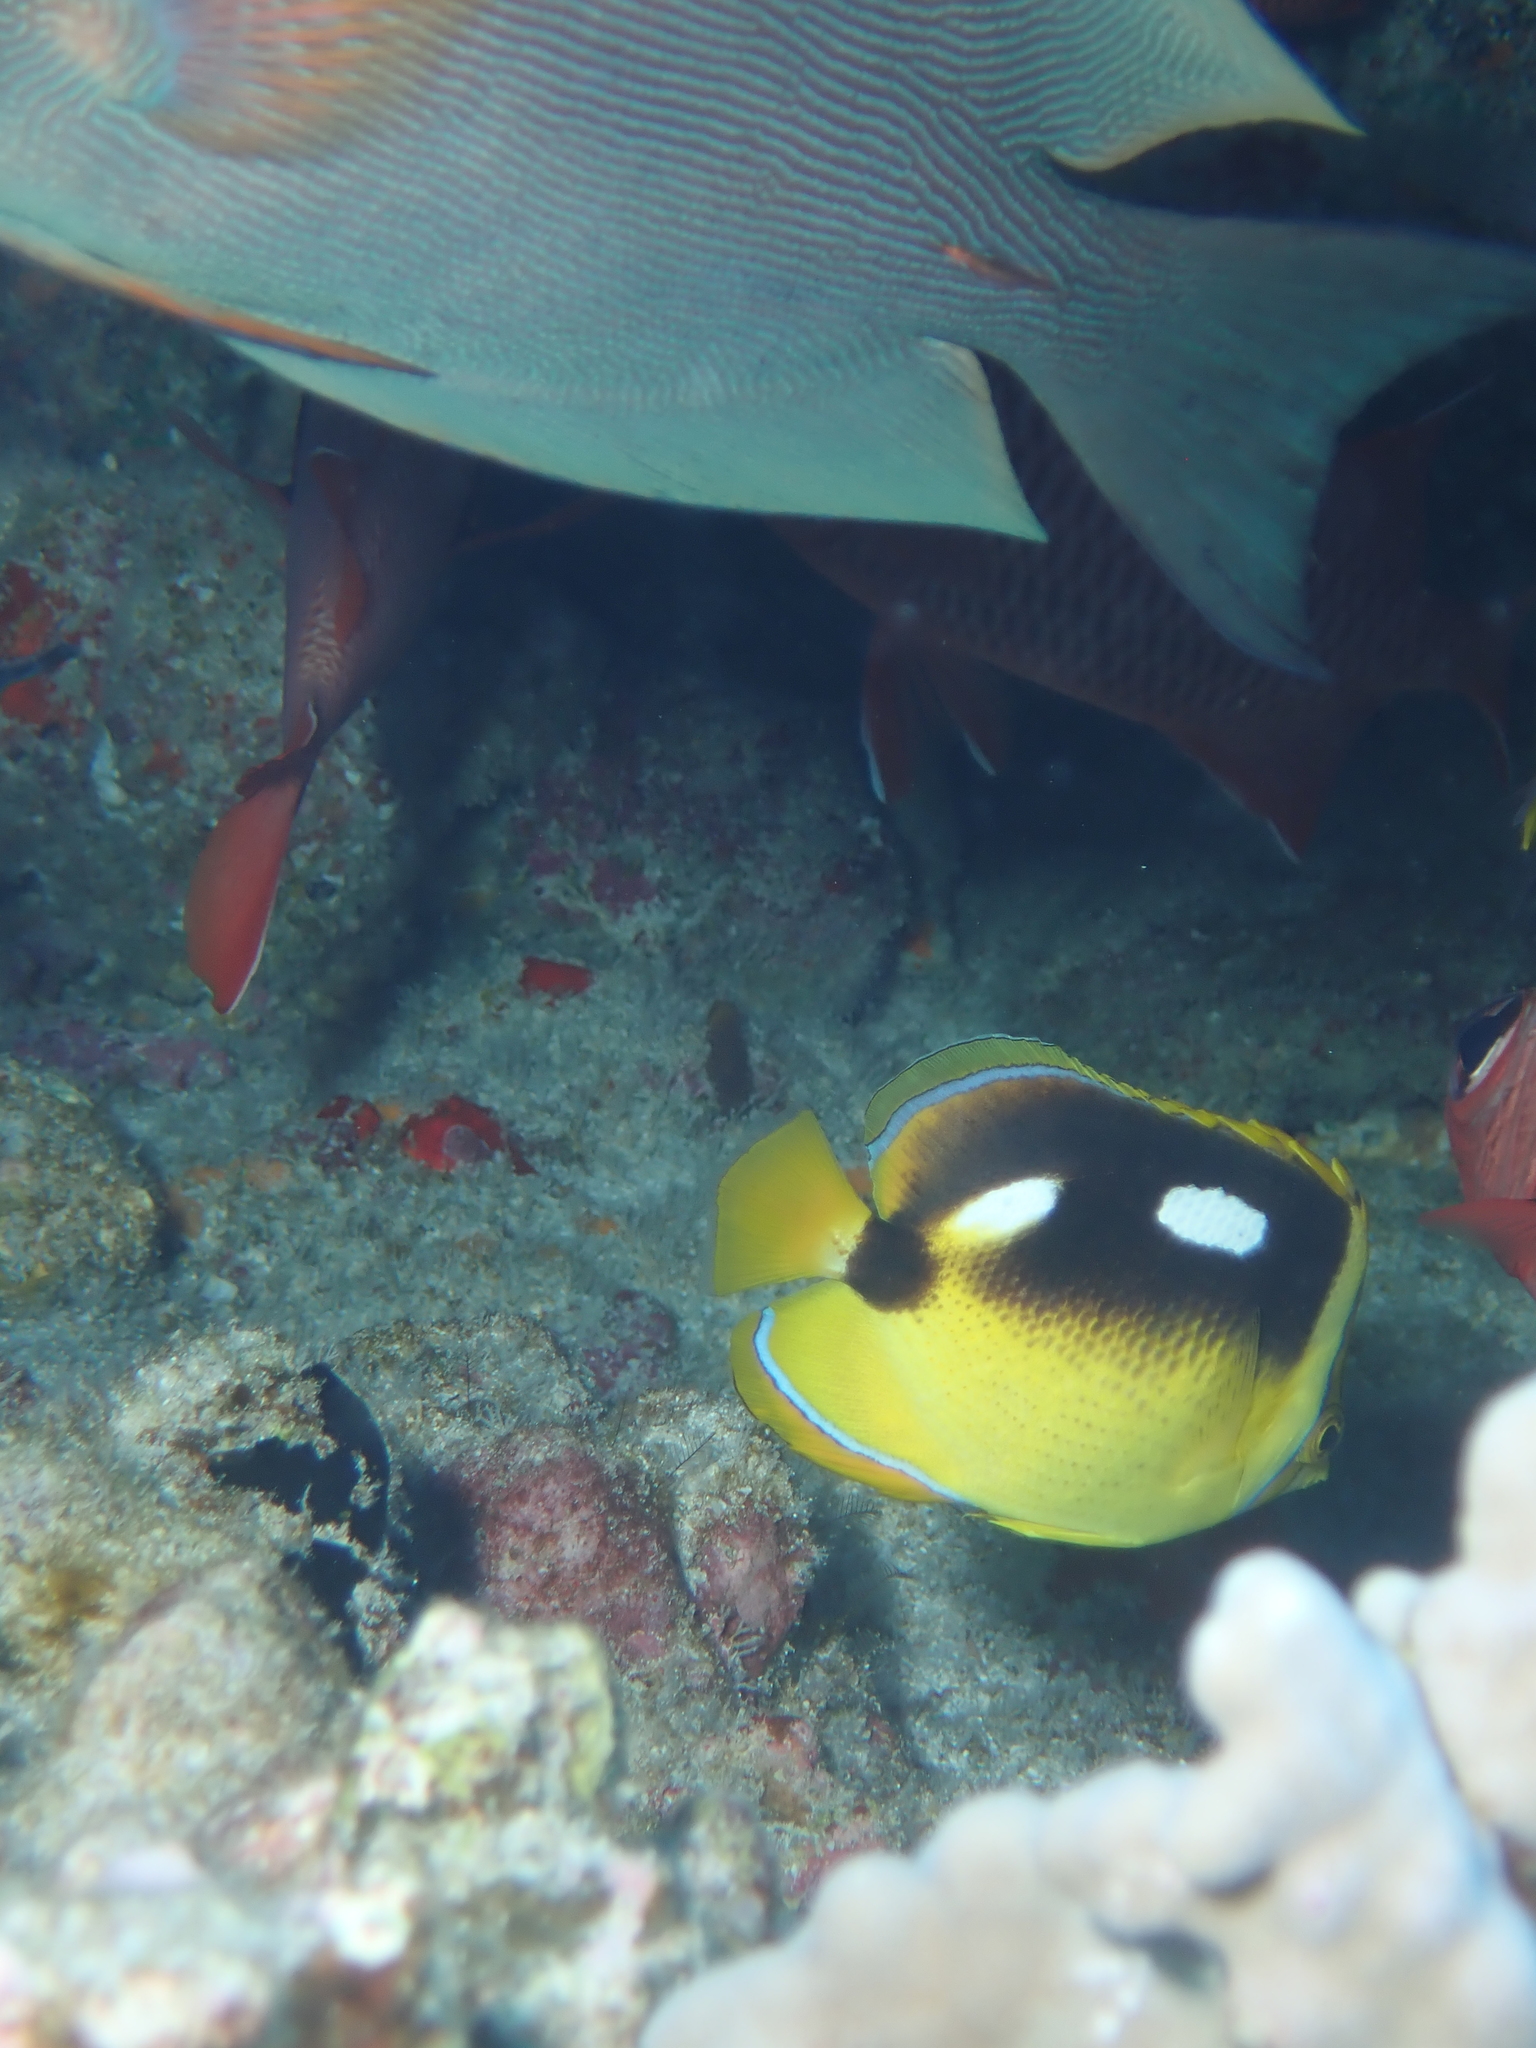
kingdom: Animalia
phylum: Chordata
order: Perciformes
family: Chaetodontidae
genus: Chaetodon
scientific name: Chaetodon quadrimaculatus
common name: Fourspot butterflyfish
